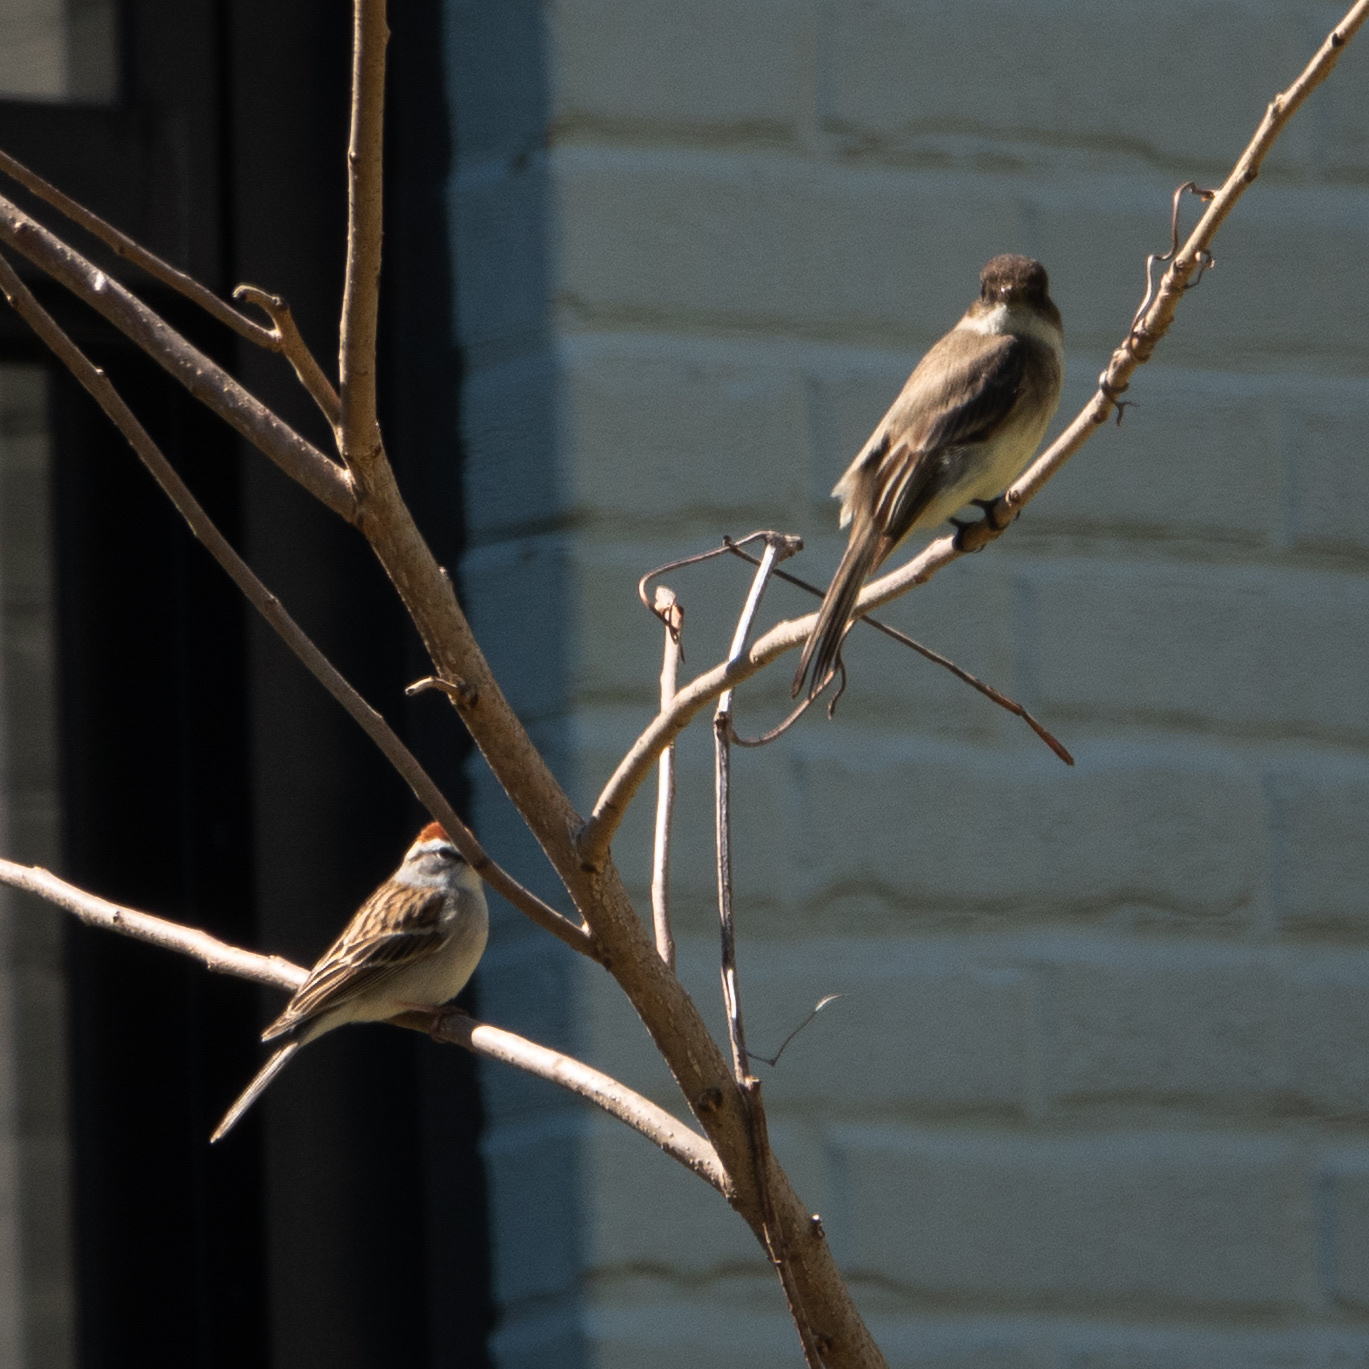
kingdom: Animalia
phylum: Chordata
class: Aves
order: Passeriformes
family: Passerellidae
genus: Spizella
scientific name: Spizella passerina
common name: Chipping sparrow
